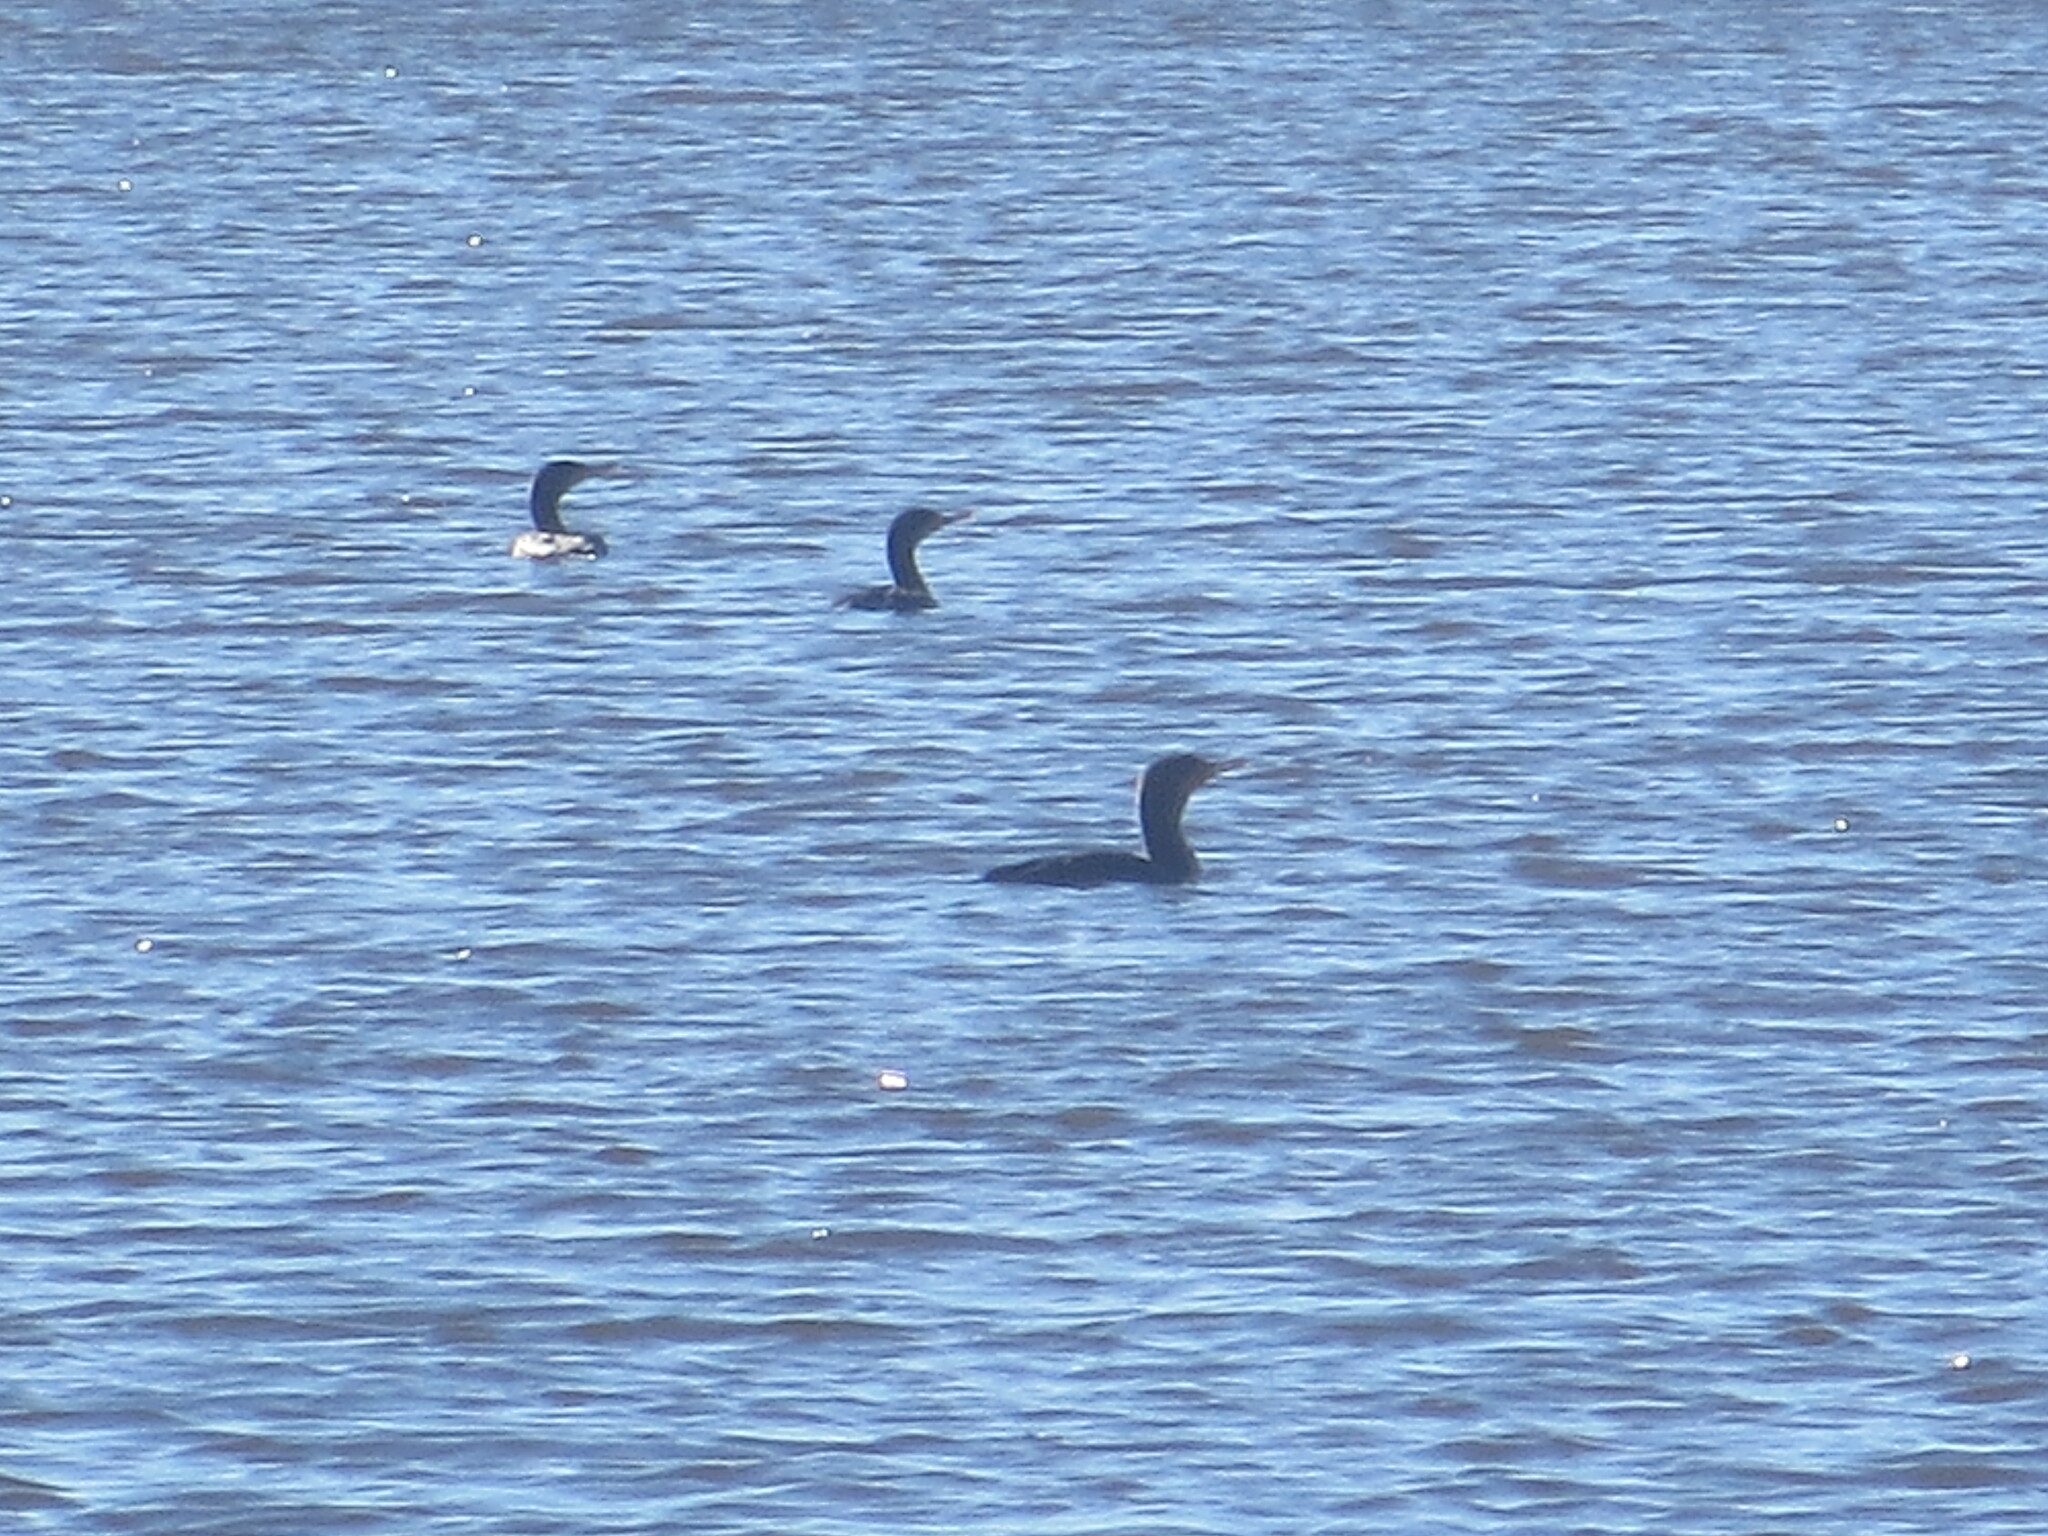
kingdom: Animalia
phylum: Chordata
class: Aves
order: Suliformes
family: Phalacrocoracidae
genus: Phalacrocorax
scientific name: Phalacrocorax auritus
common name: Double-crested cormorant
